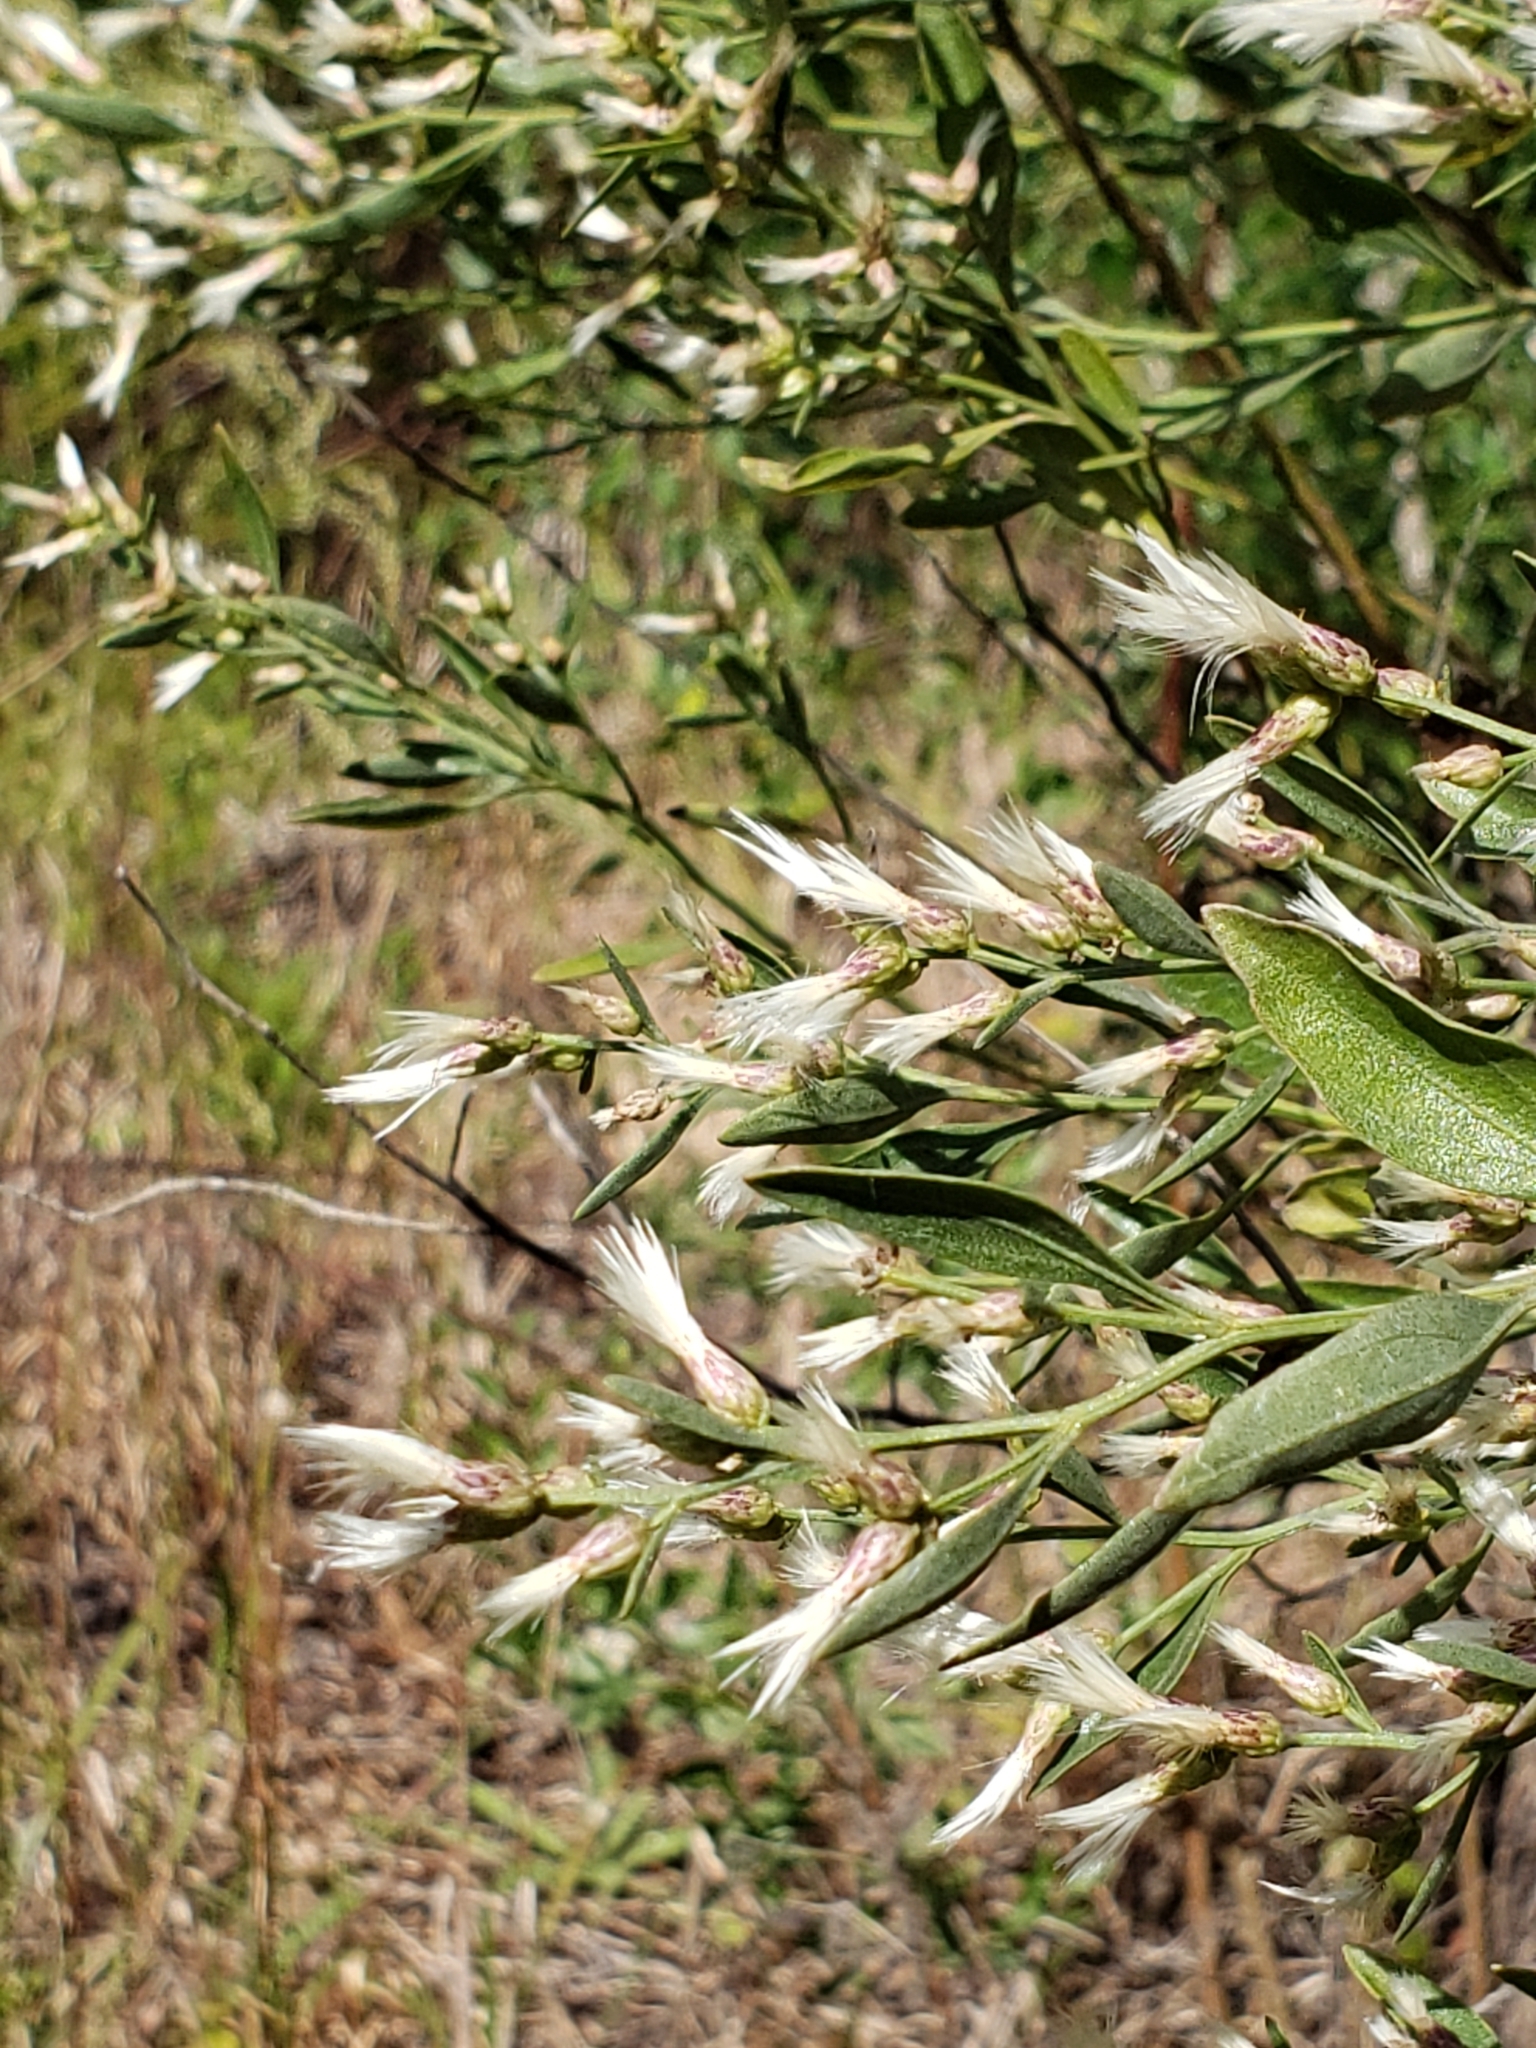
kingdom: Plantae
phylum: Tracheophyta
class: Magnoliopsida
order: Asterales
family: Asteraceae
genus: Baccharis
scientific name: Baccharis halimifolia
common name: Eastern baccharis
